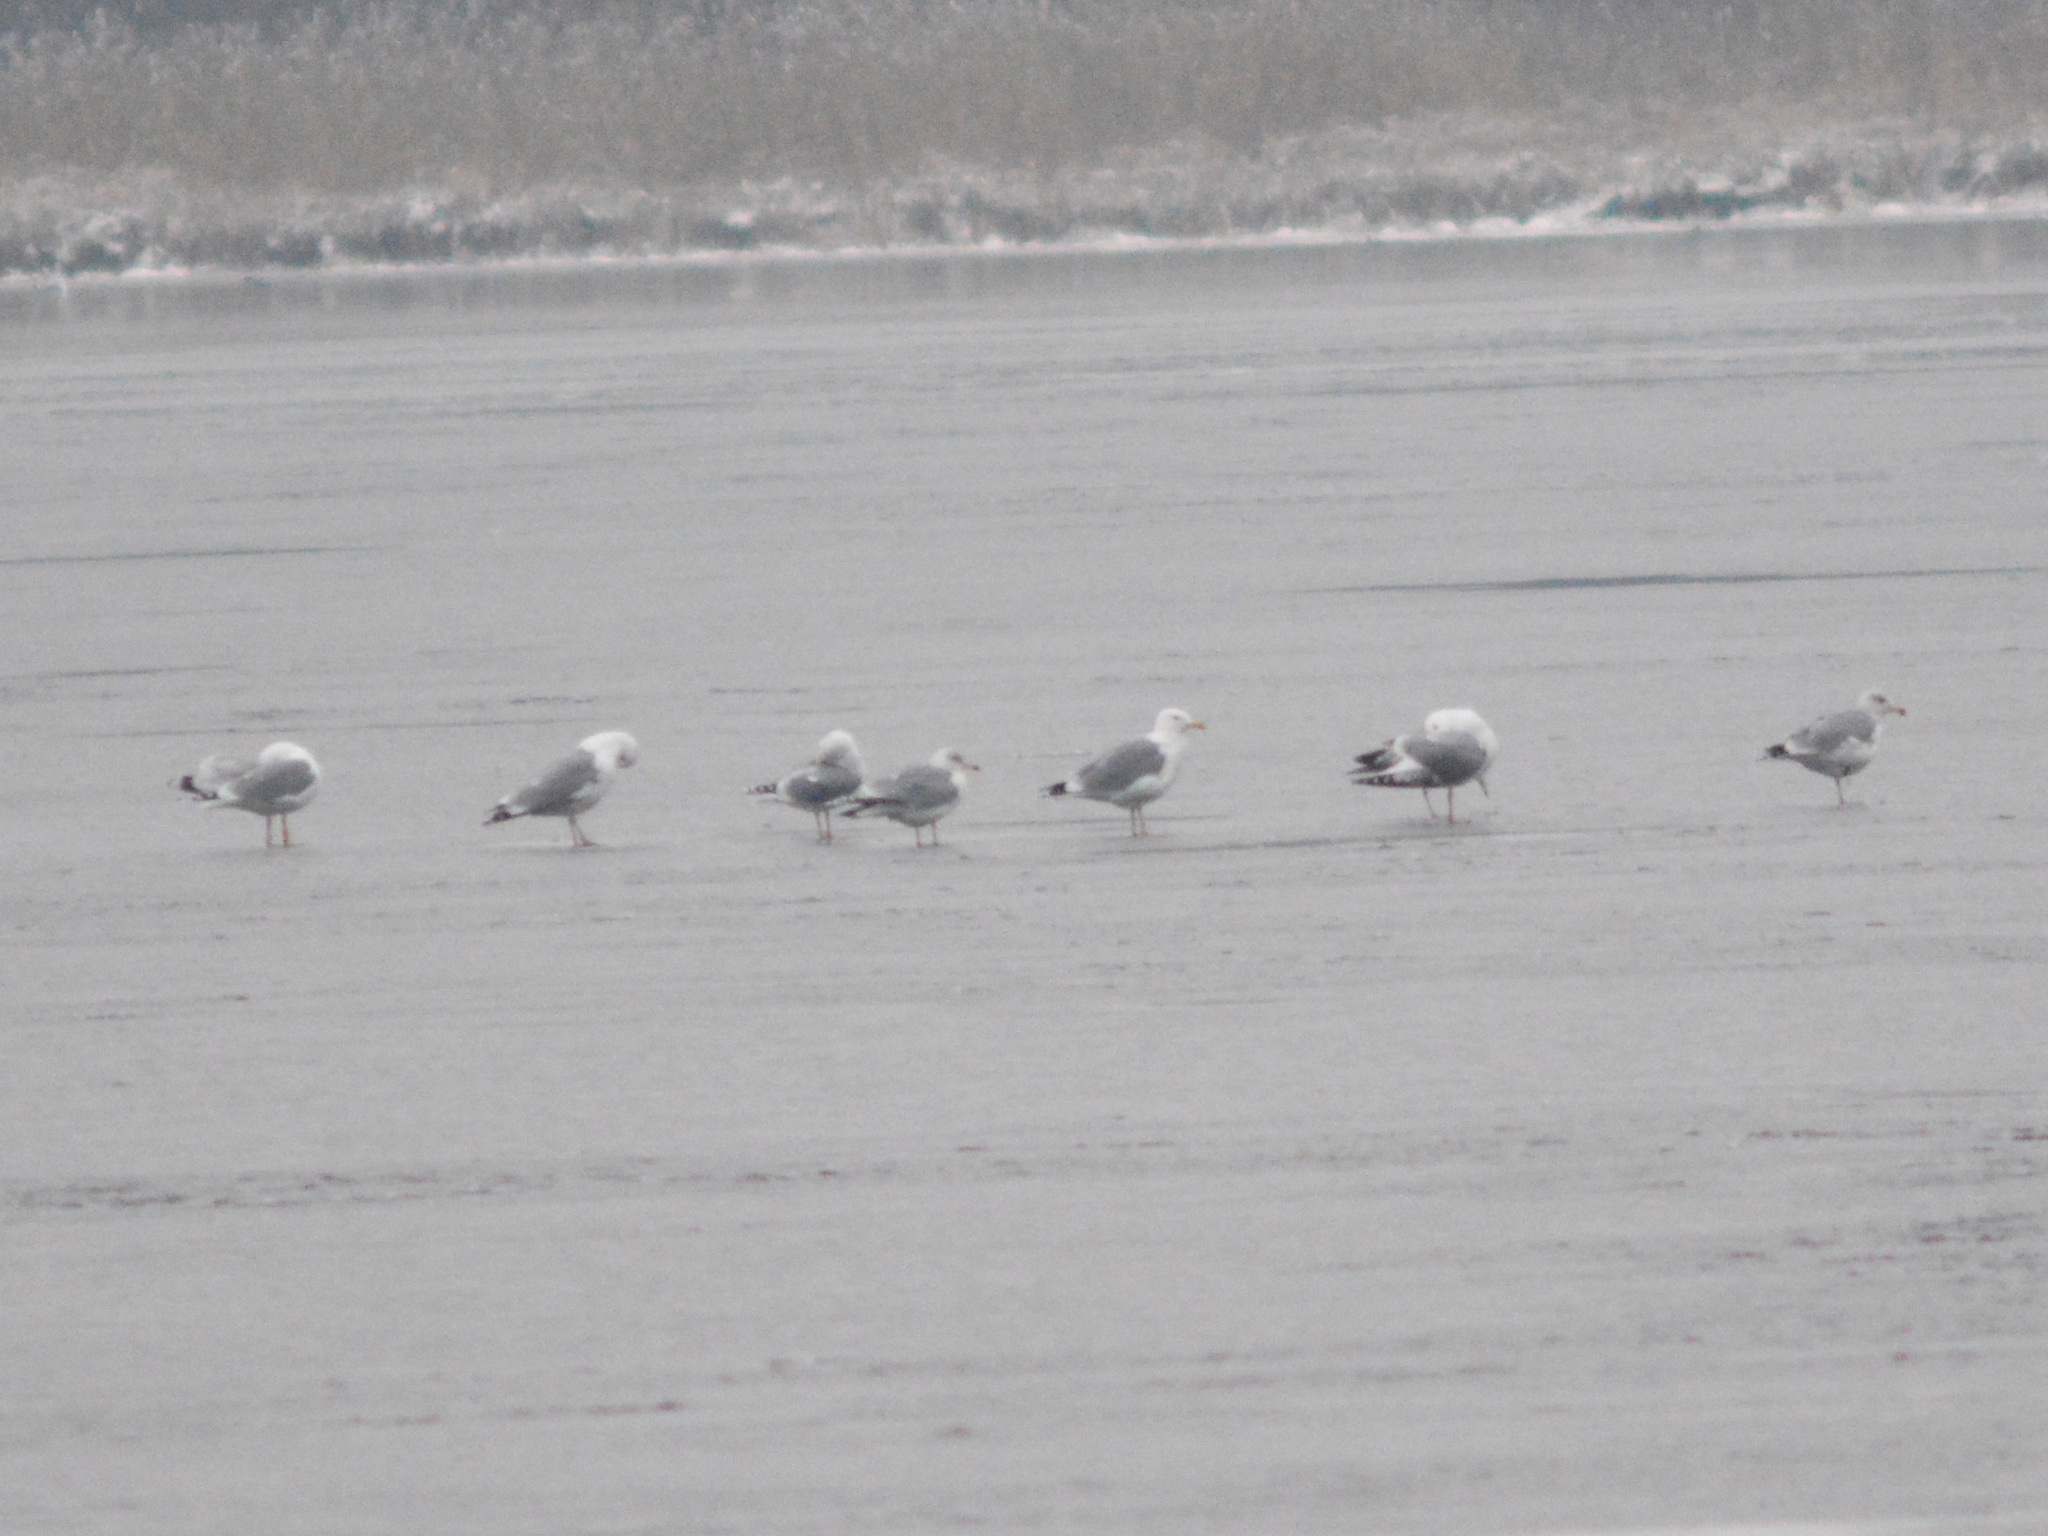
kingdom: Animalia
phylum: Chordata
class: Aves
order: Charadriiformes
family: Laridae
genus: Larus
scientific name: Larus cachinnans
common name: Caspian gull
